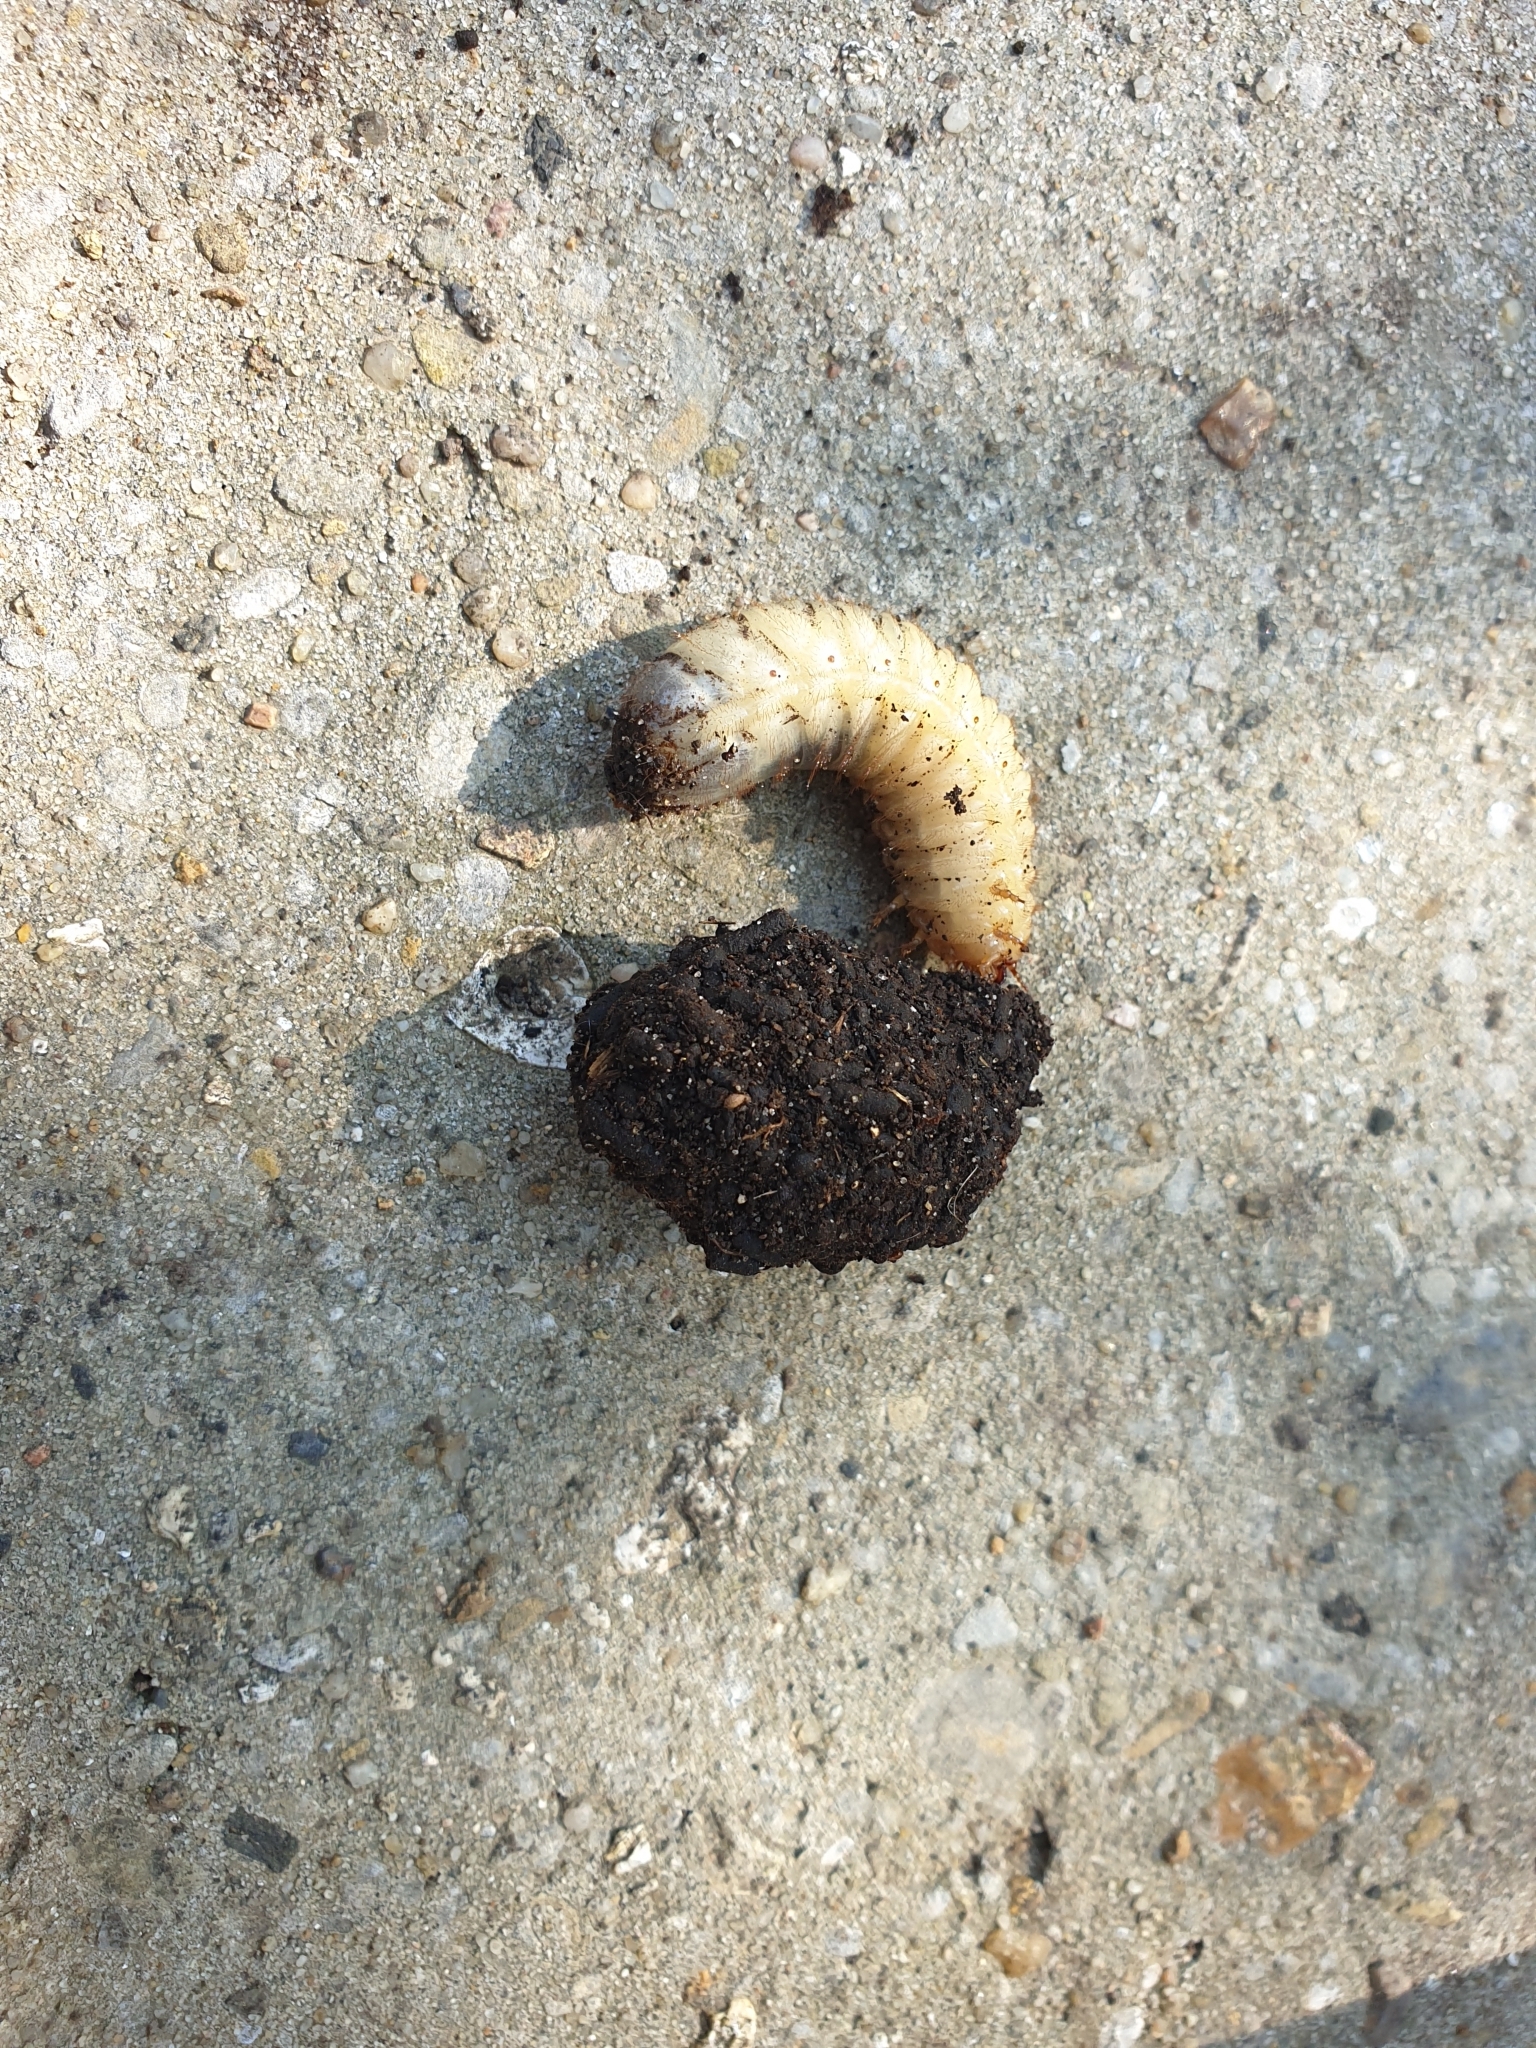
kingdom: Animalia
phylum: Arthropoda
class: Insecta
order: Coleoptera
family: Scarabaeidae
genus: Cetonia
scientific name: Cetonia aurata
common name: Rose chafer
